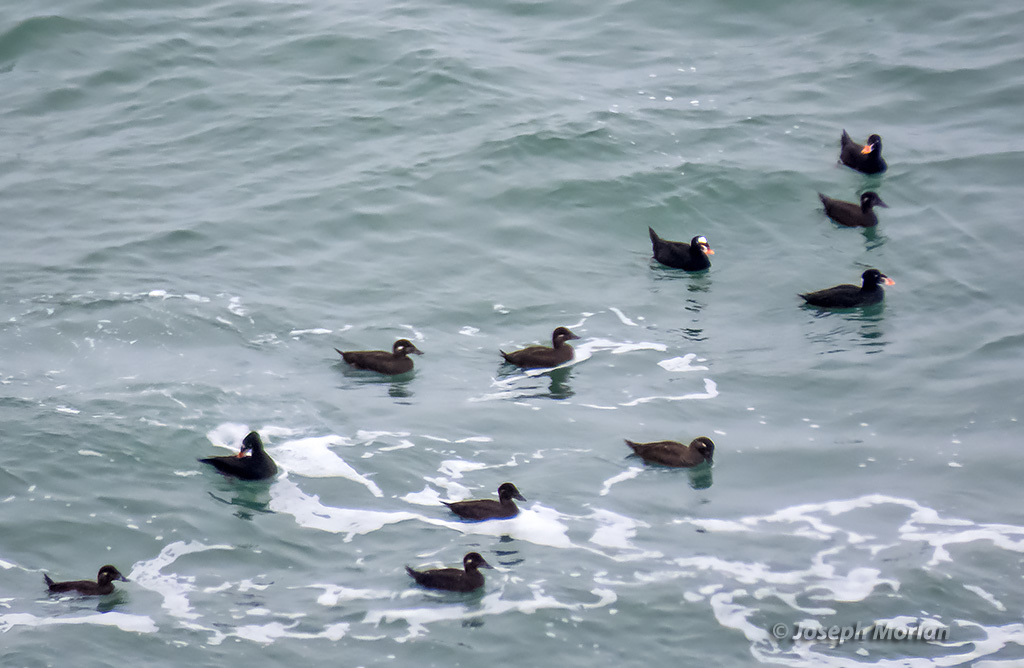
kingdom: Animalia
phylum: Chordata
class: Aves
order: Anseriformes
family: Anatidae
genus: Melanitta
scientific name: Melanitta perspicillata
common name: Surf scoter
